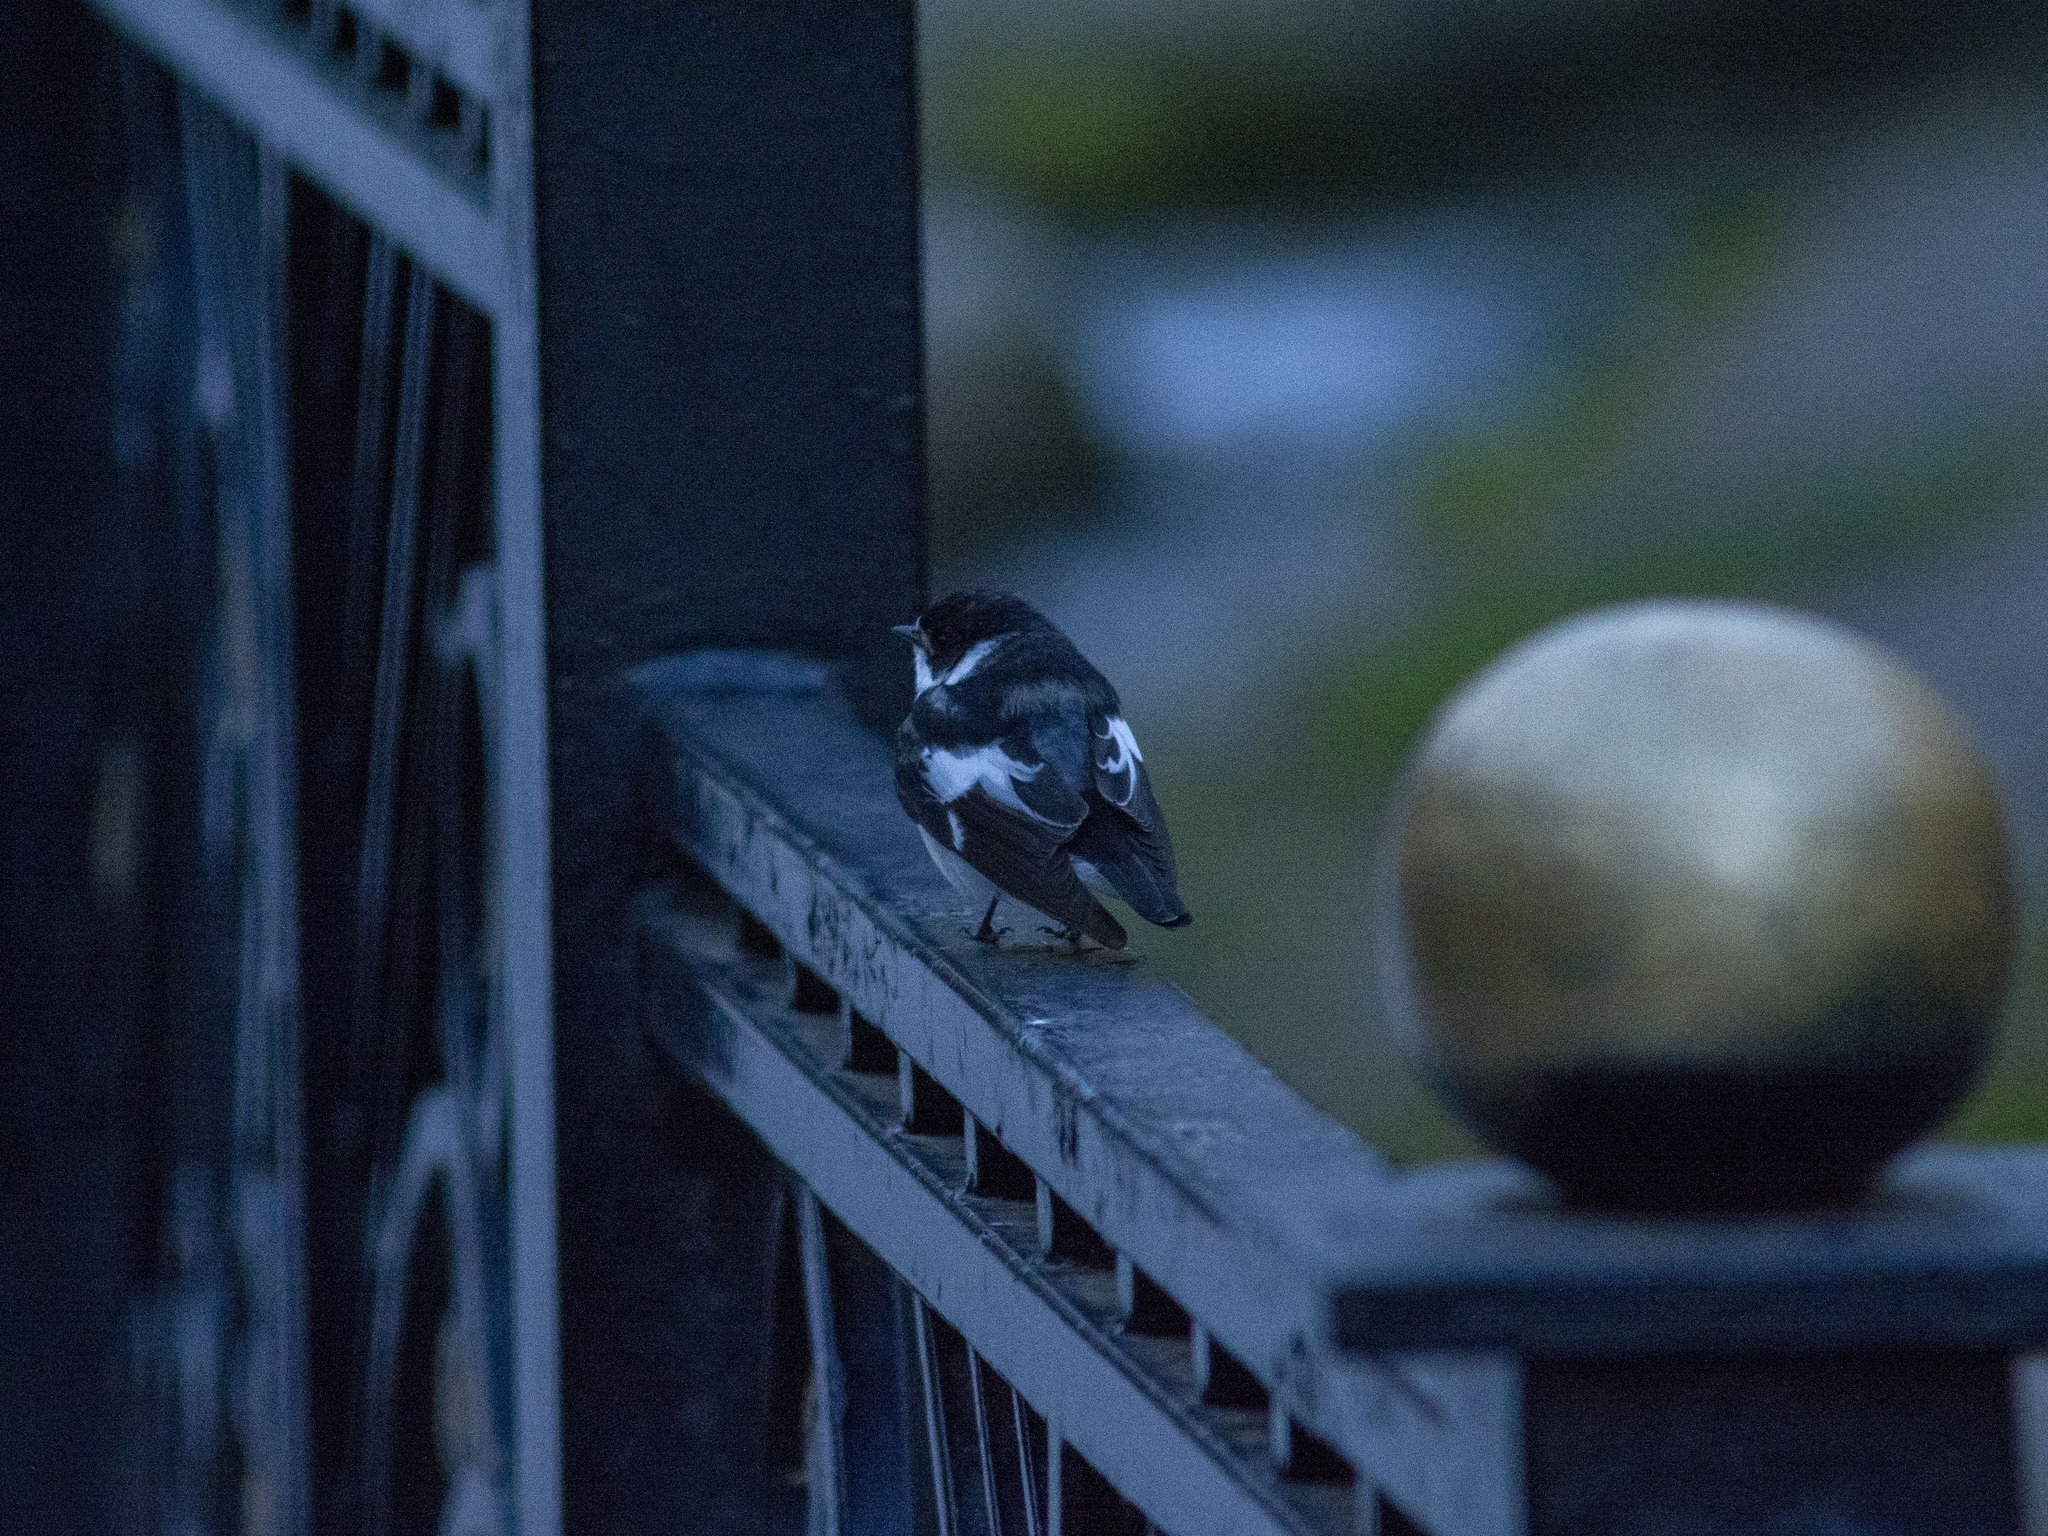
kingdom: Animalia
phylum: Chordata
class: Aves
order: Passeriformes
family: Muscicapidae
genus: Ficedula
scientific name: Ficedula semitorquata
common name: Semicollared flycatcher
